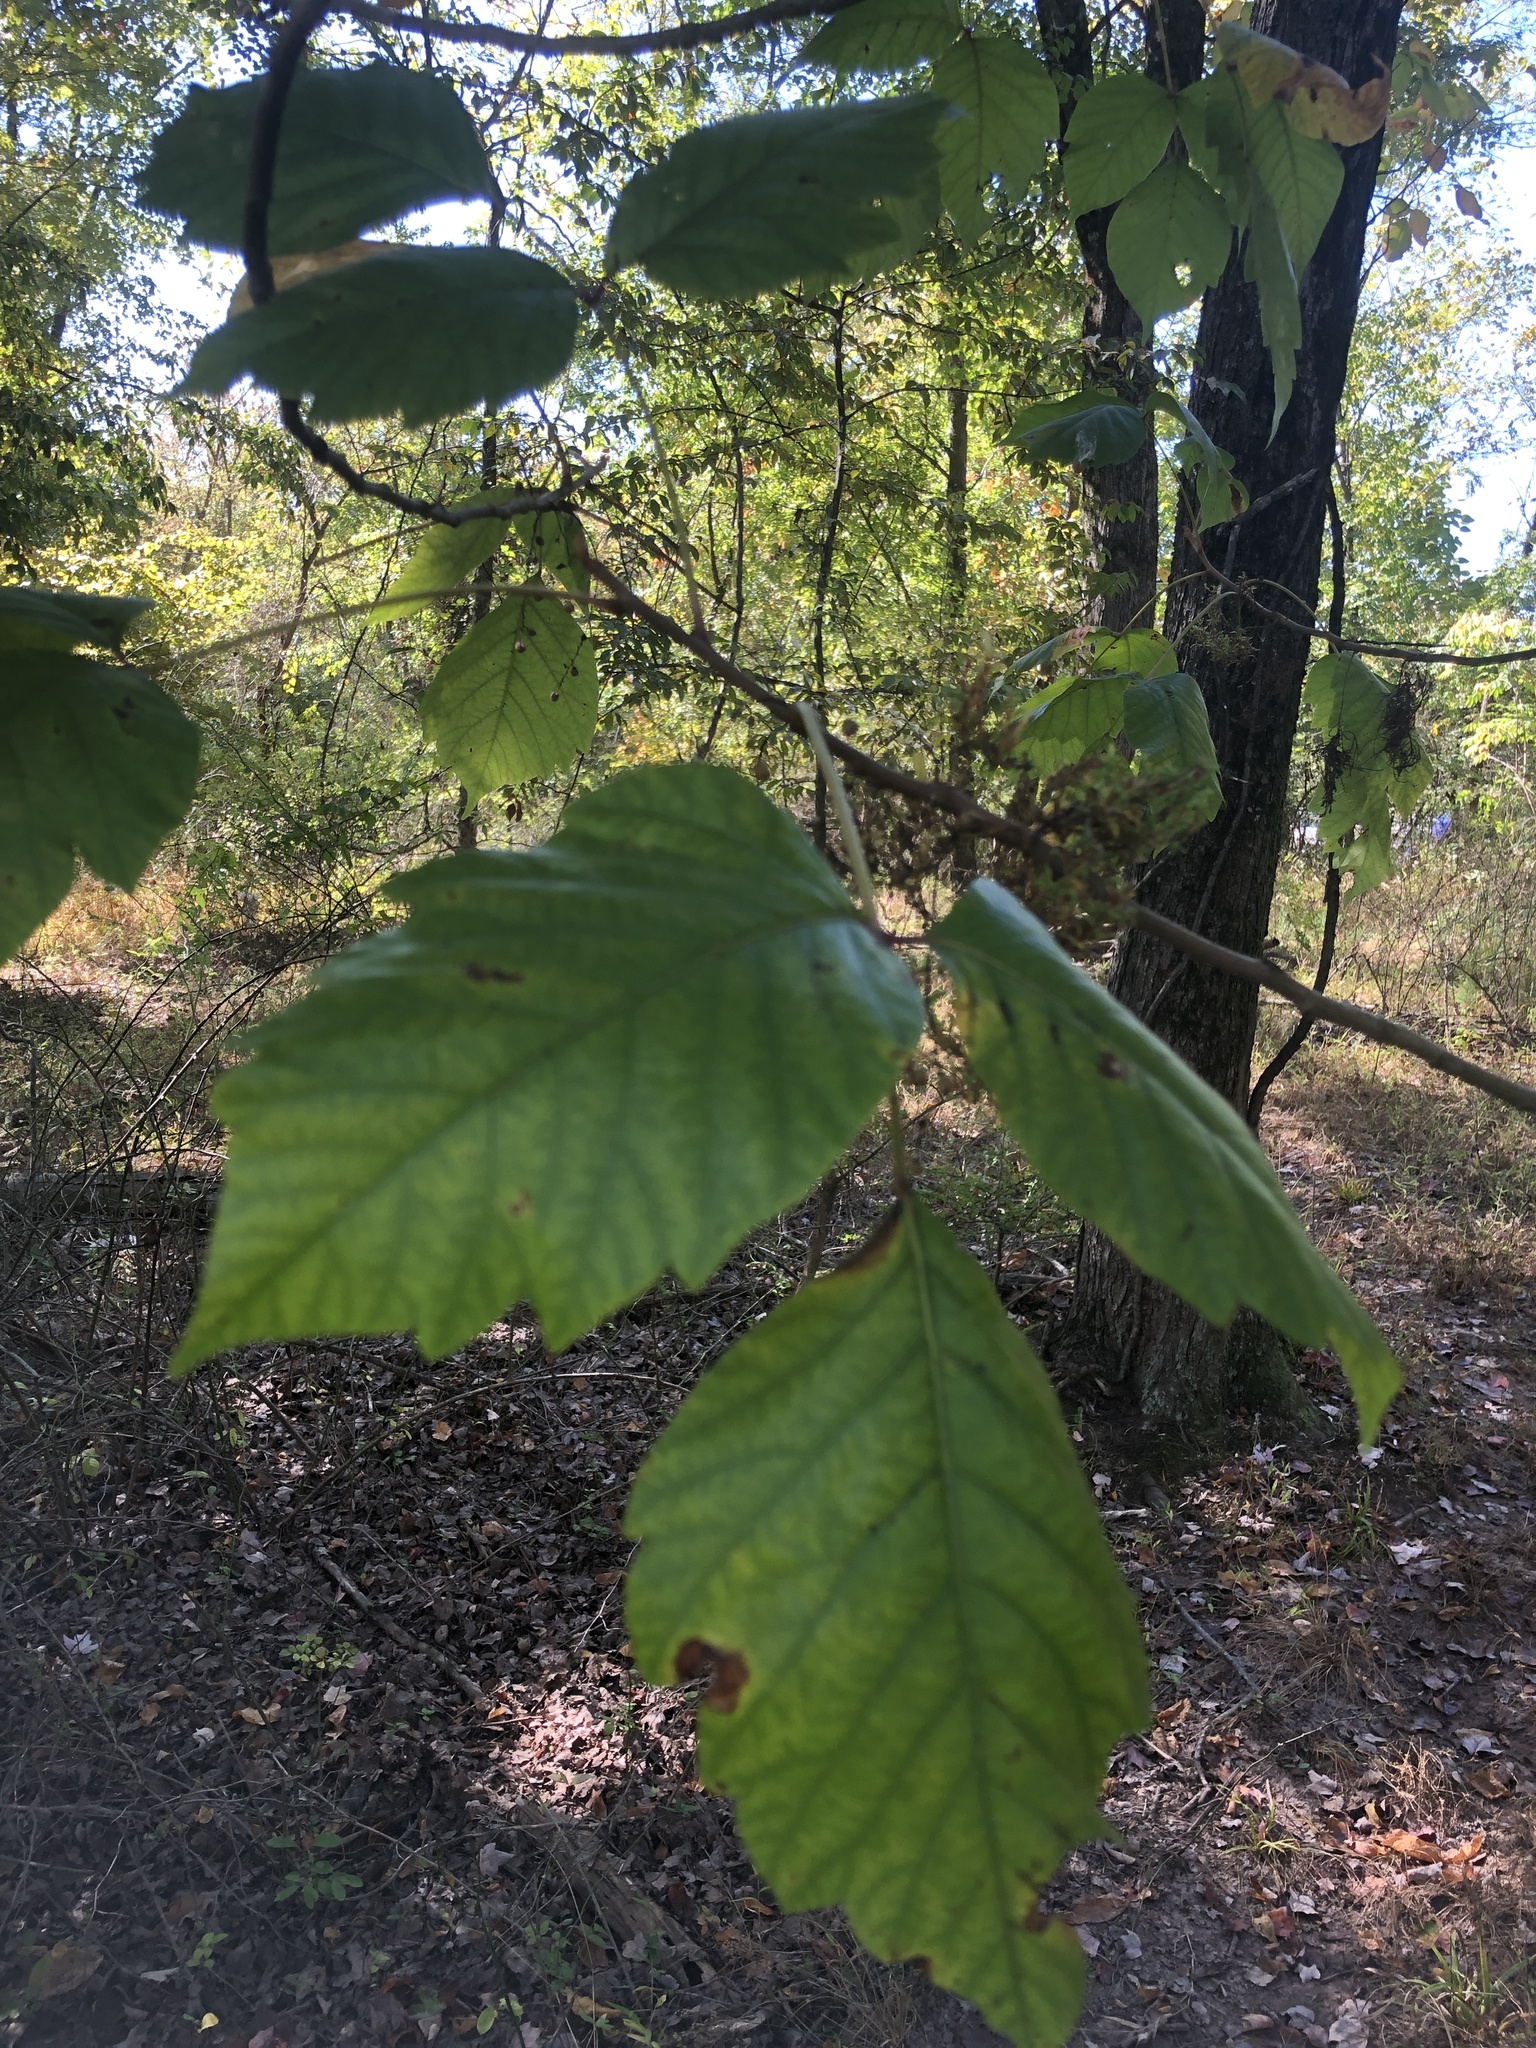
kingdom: Plantae
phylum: Tracheophyta
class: Magnoliopsida
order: Sapindales
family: Anacardiaceae
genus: Toxicodendron
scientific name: Toxicodendron radicans
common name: Poison ivy
